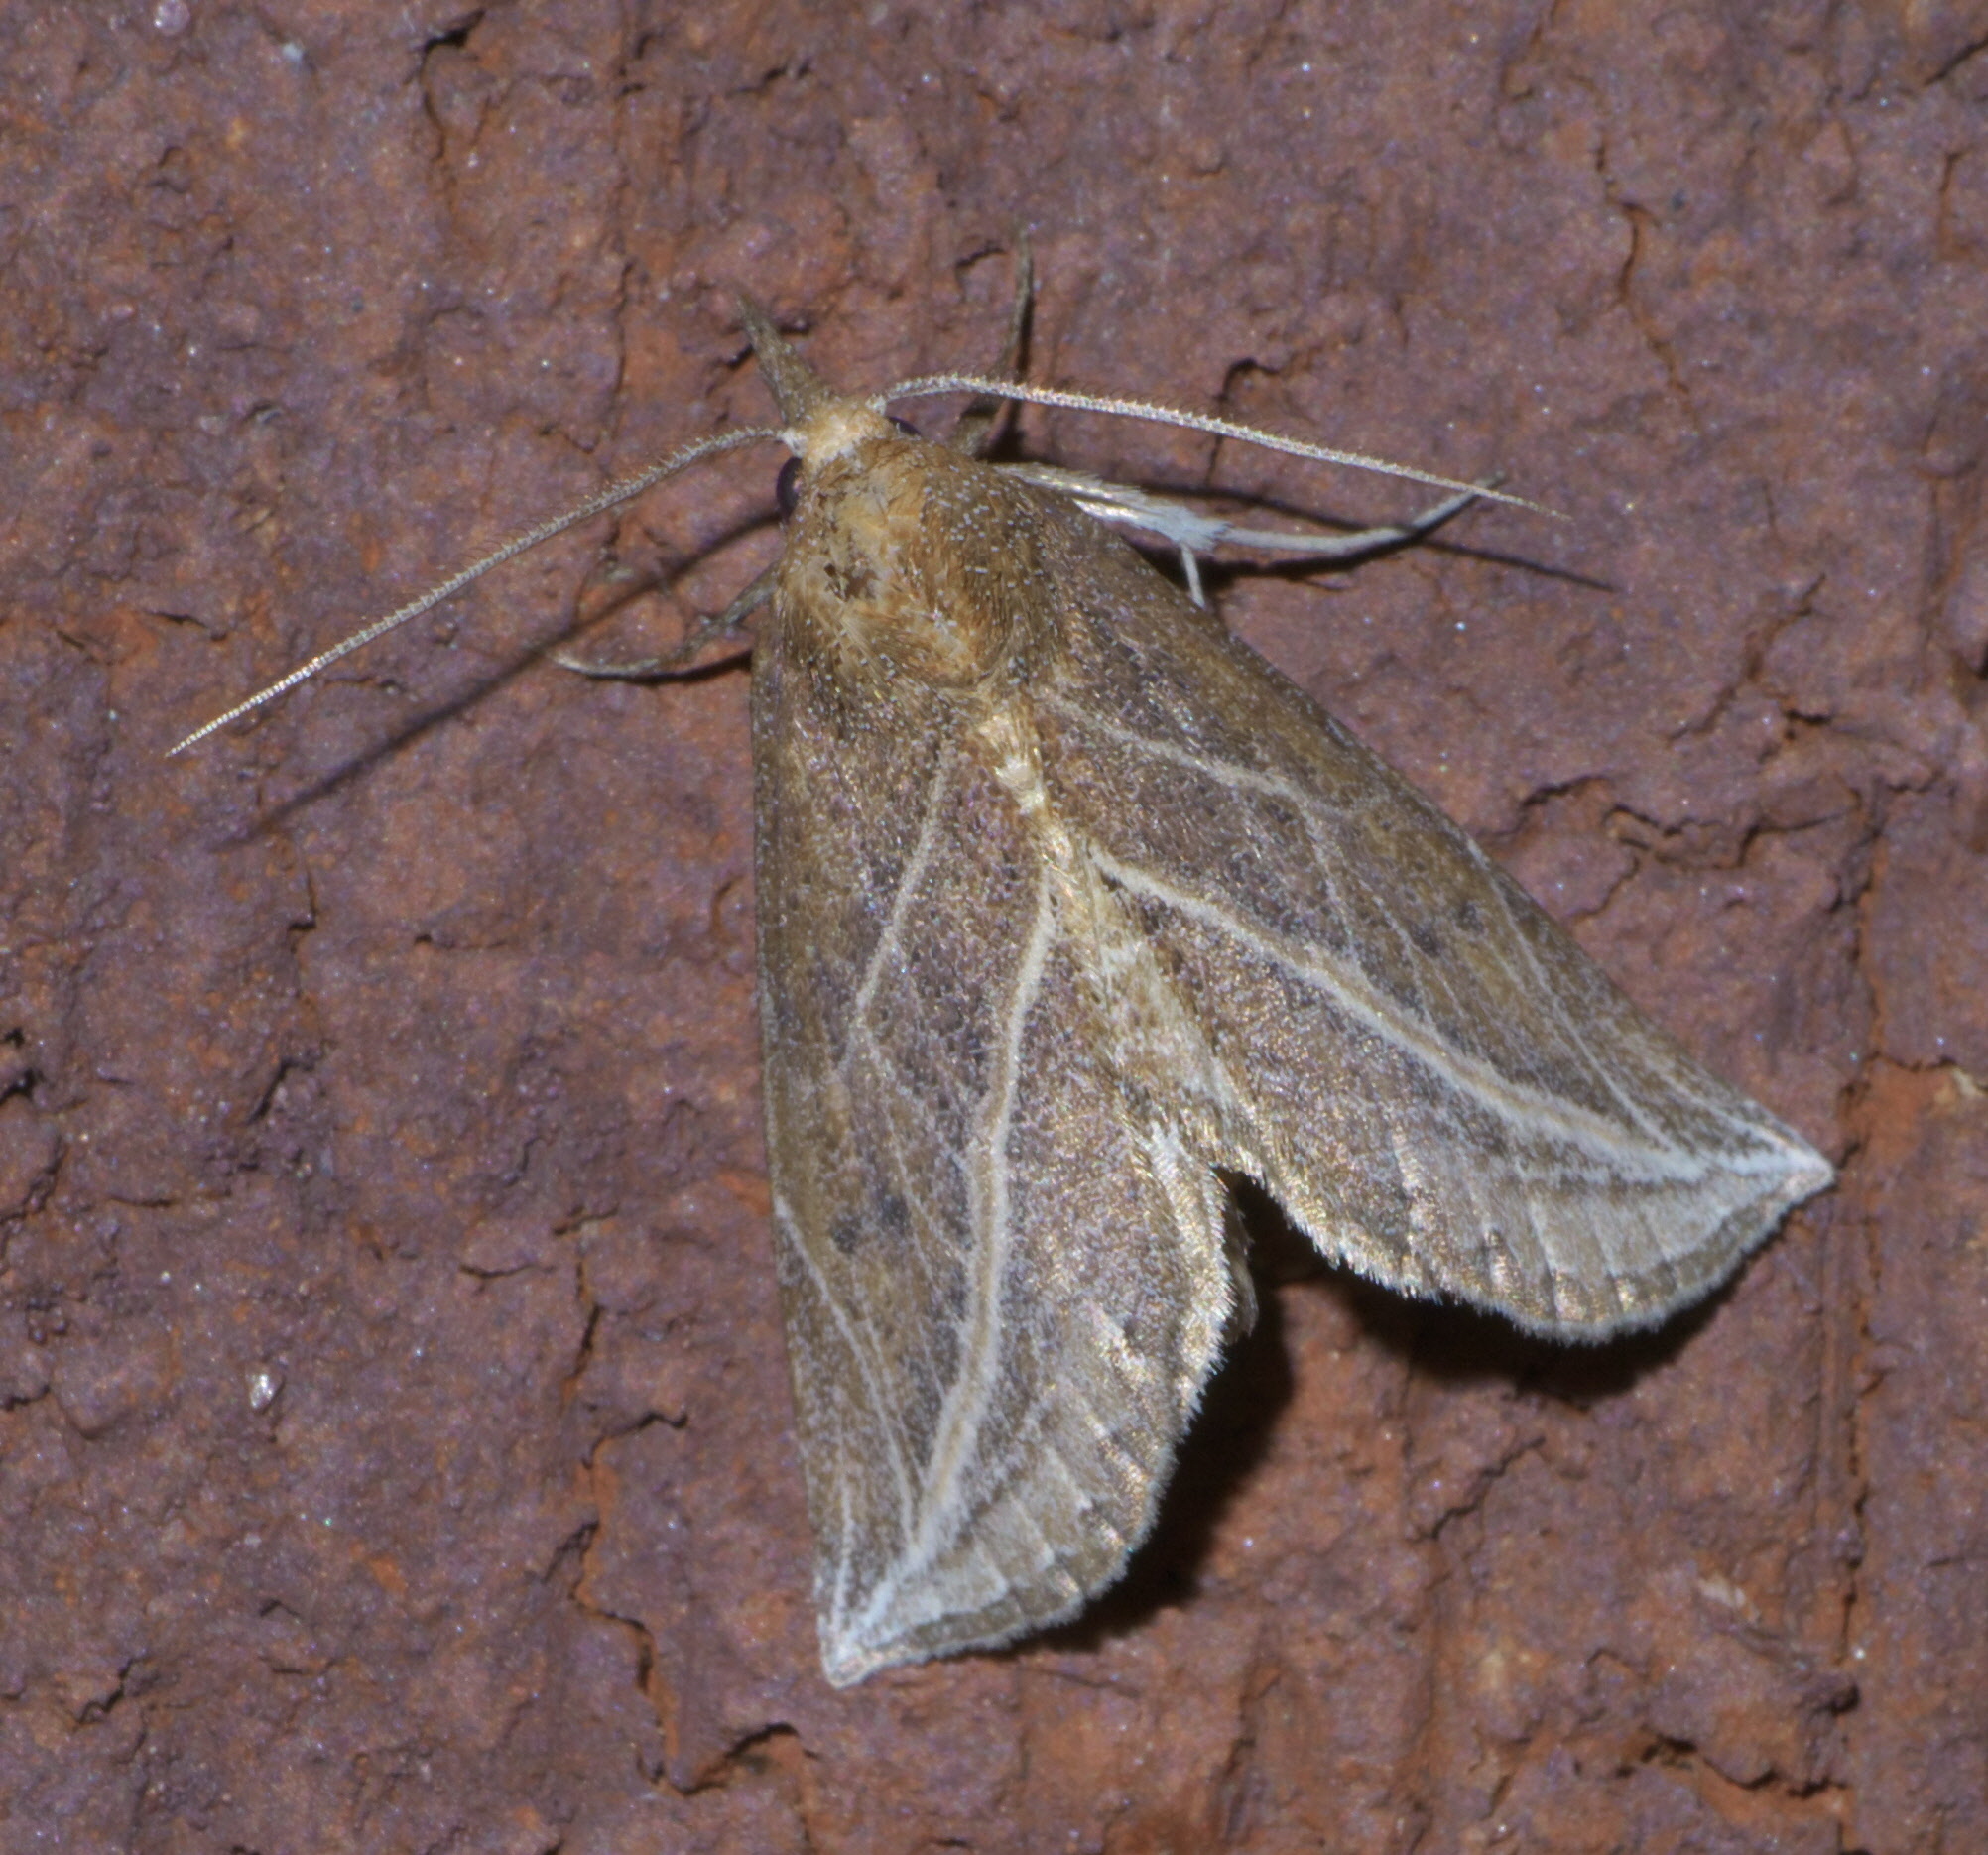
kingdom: Animalia
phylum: Arthropoda
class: Insecta
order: Lepidoptera
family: Erebidae
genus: Phyprosopus
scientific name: Phyprosopus callitrichoides
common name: Curved-lined owlet
